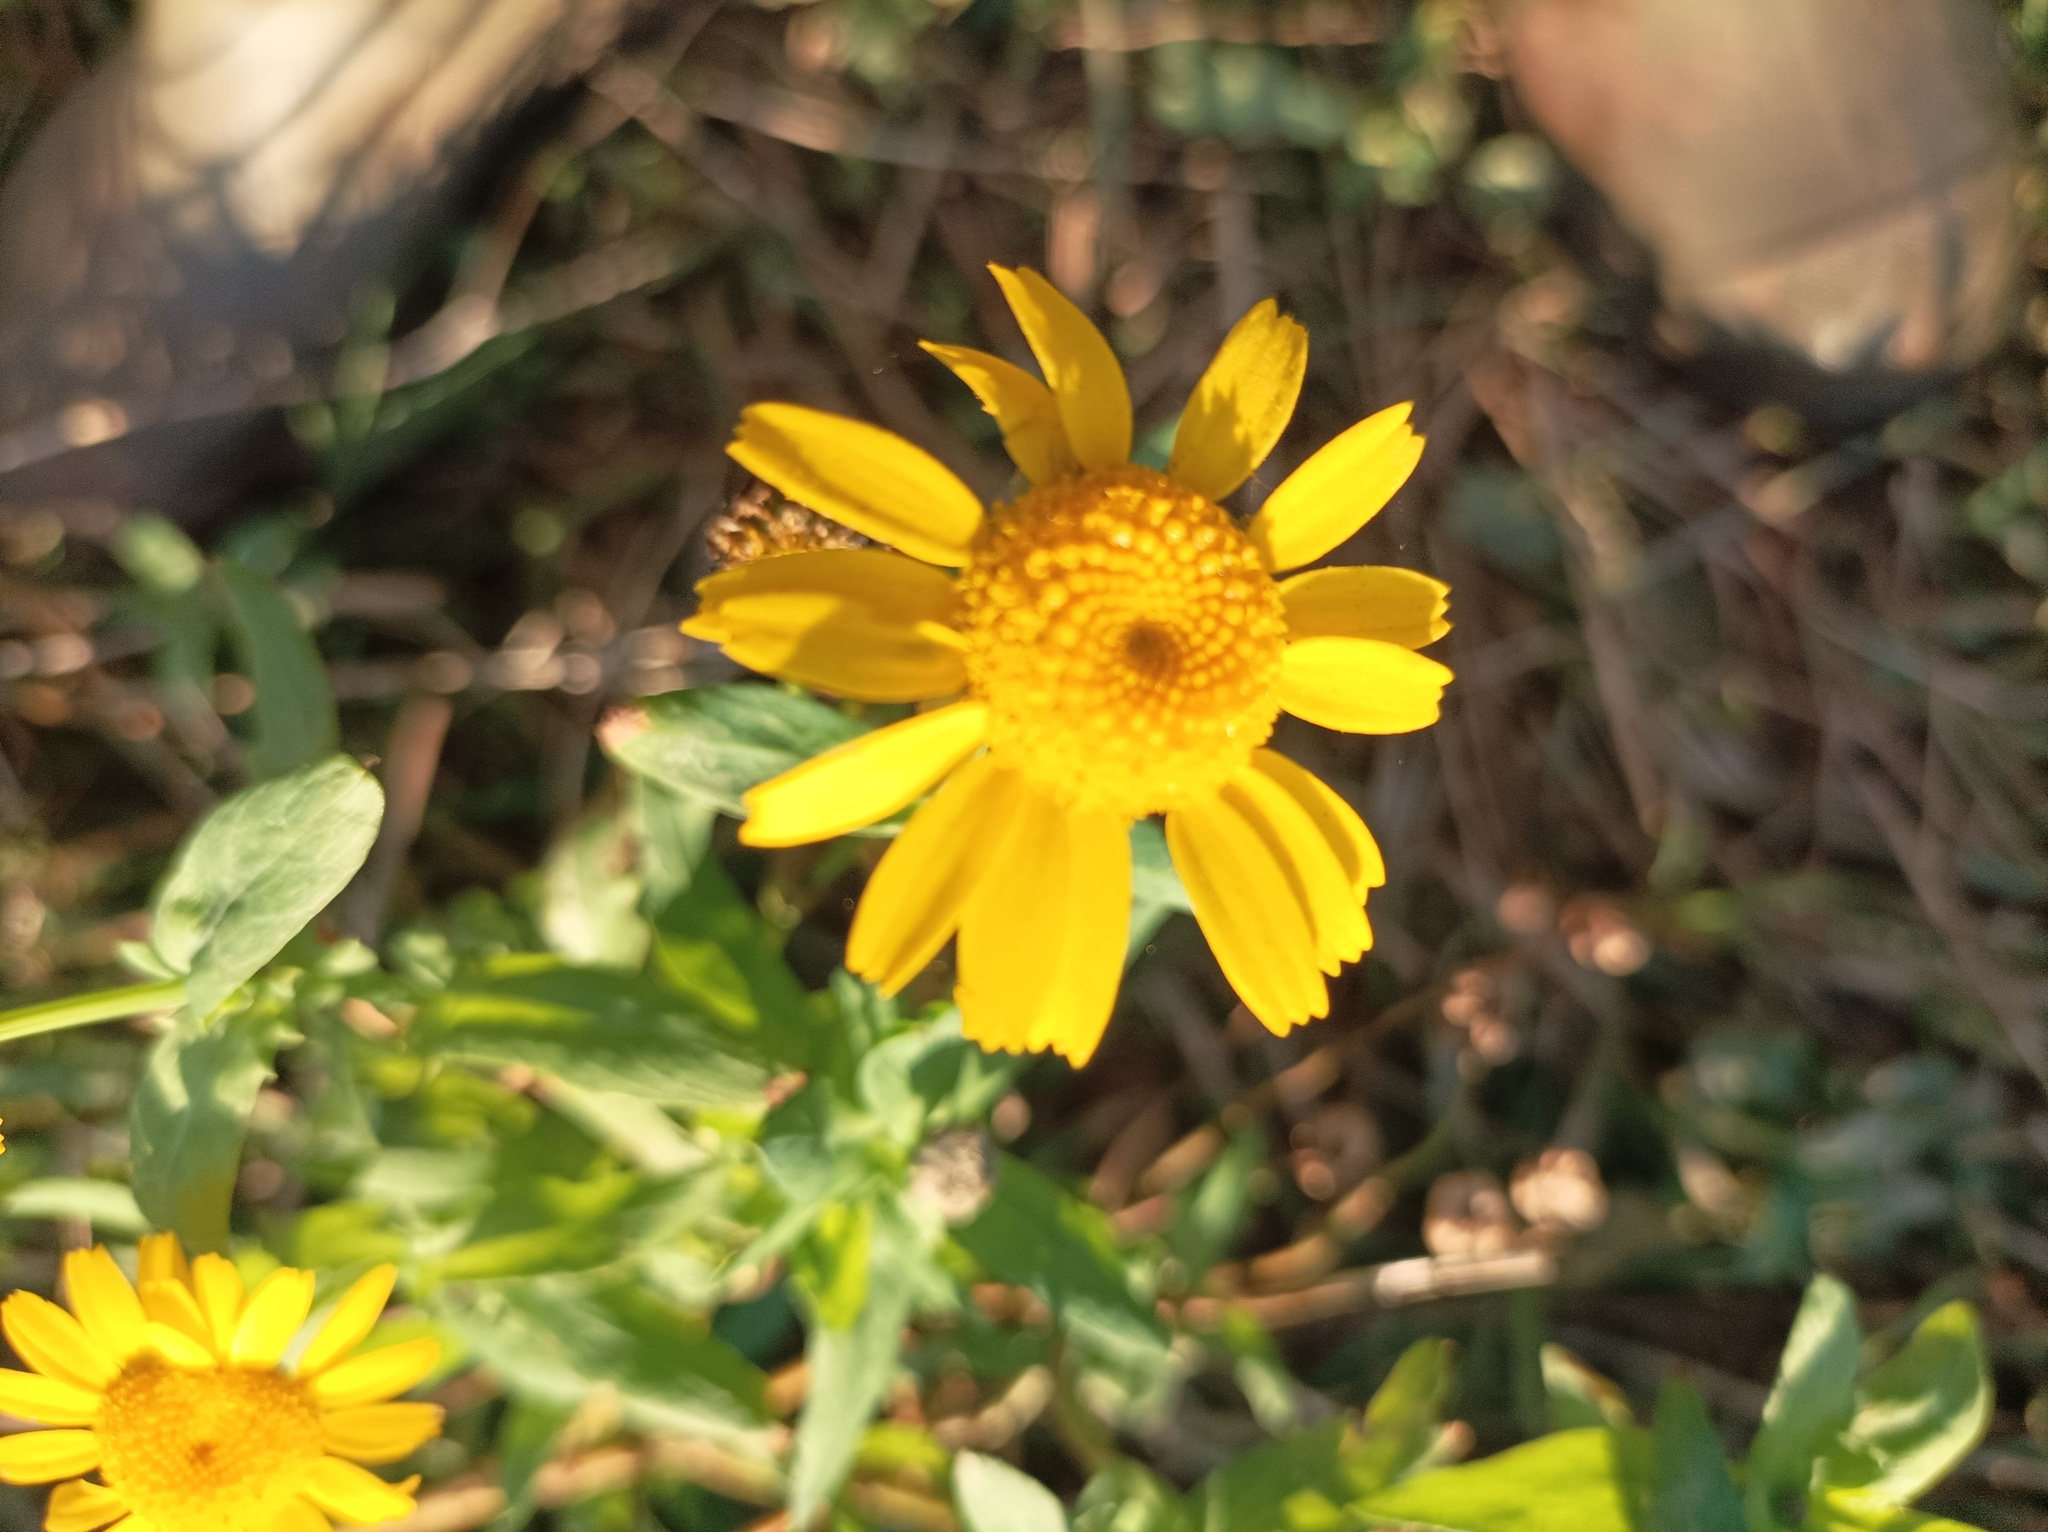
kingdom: Plantae
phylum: Tracheophyta
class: Magnoliopsida
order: Asterales
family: Asteraceae
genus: Glebionis
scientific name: Glebionis segetum
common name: Corndaisy
